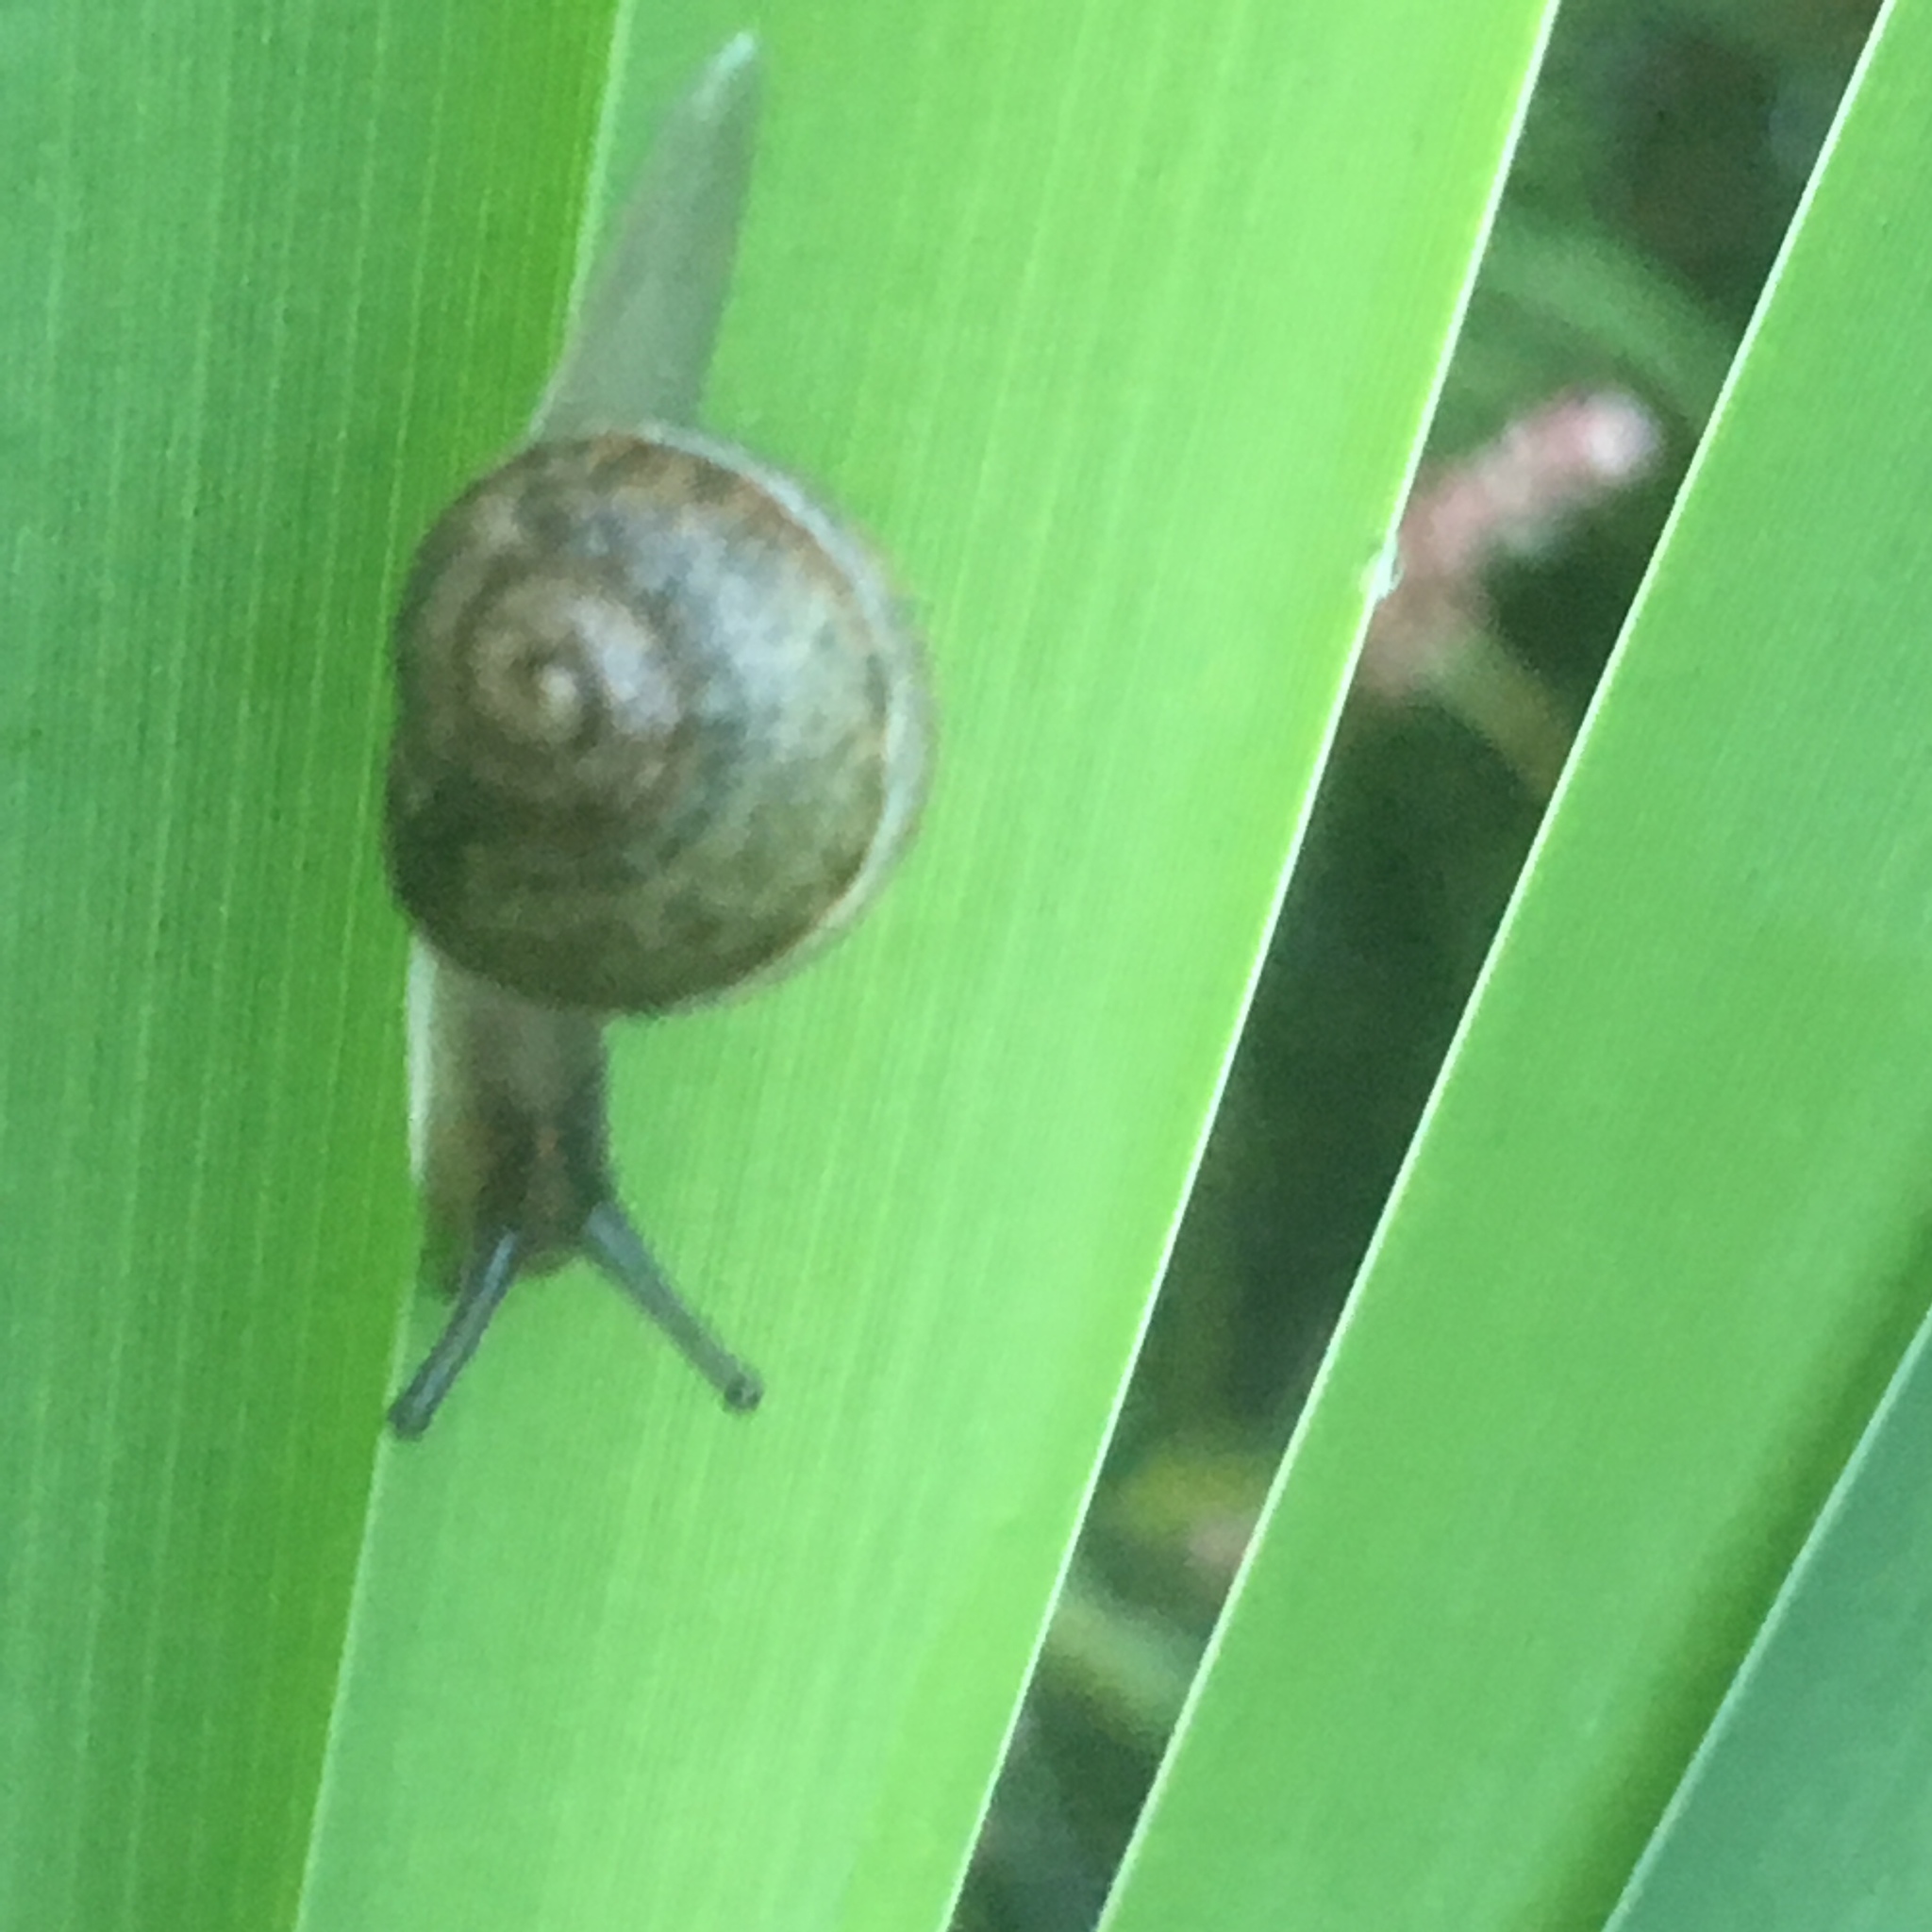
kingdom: Animalia
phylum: Mollusca
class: Gastropoda
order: Stylommatophora
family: Helicidae
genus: Cornu
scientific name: Cornu aspersum
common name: Brown garden snail
